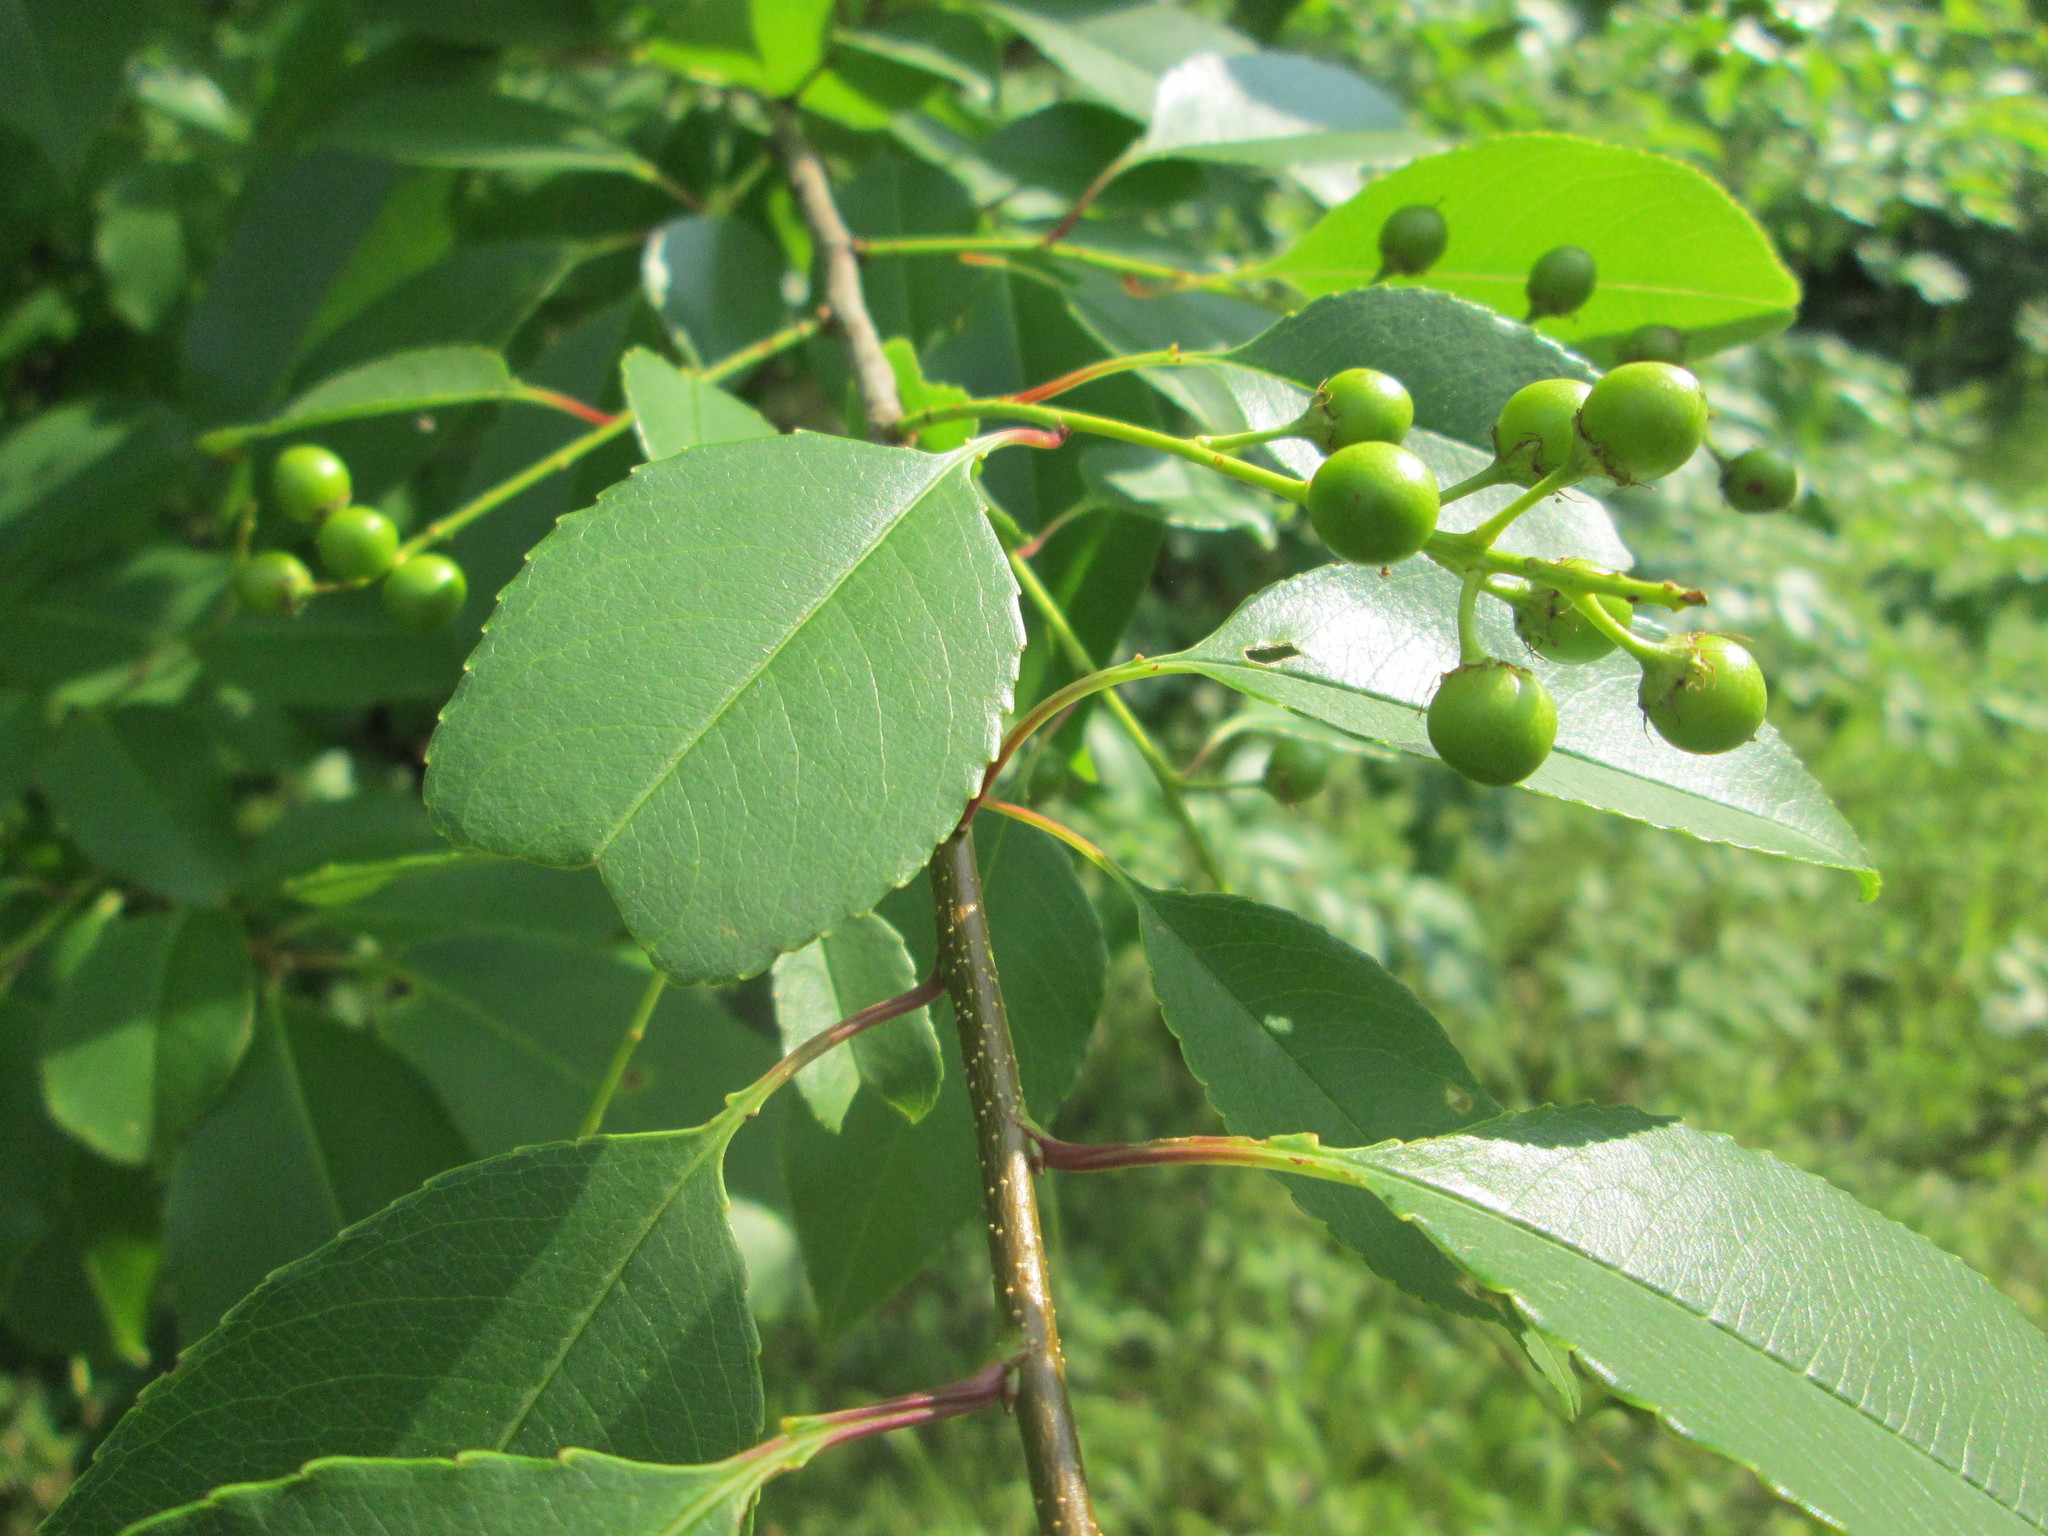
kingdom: Plantae
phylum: Tracheophyta
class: Magnoliopsida
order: Rosales
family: Rosaceae
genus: Prunus
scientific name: Prunus serotina
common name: Black cherry
